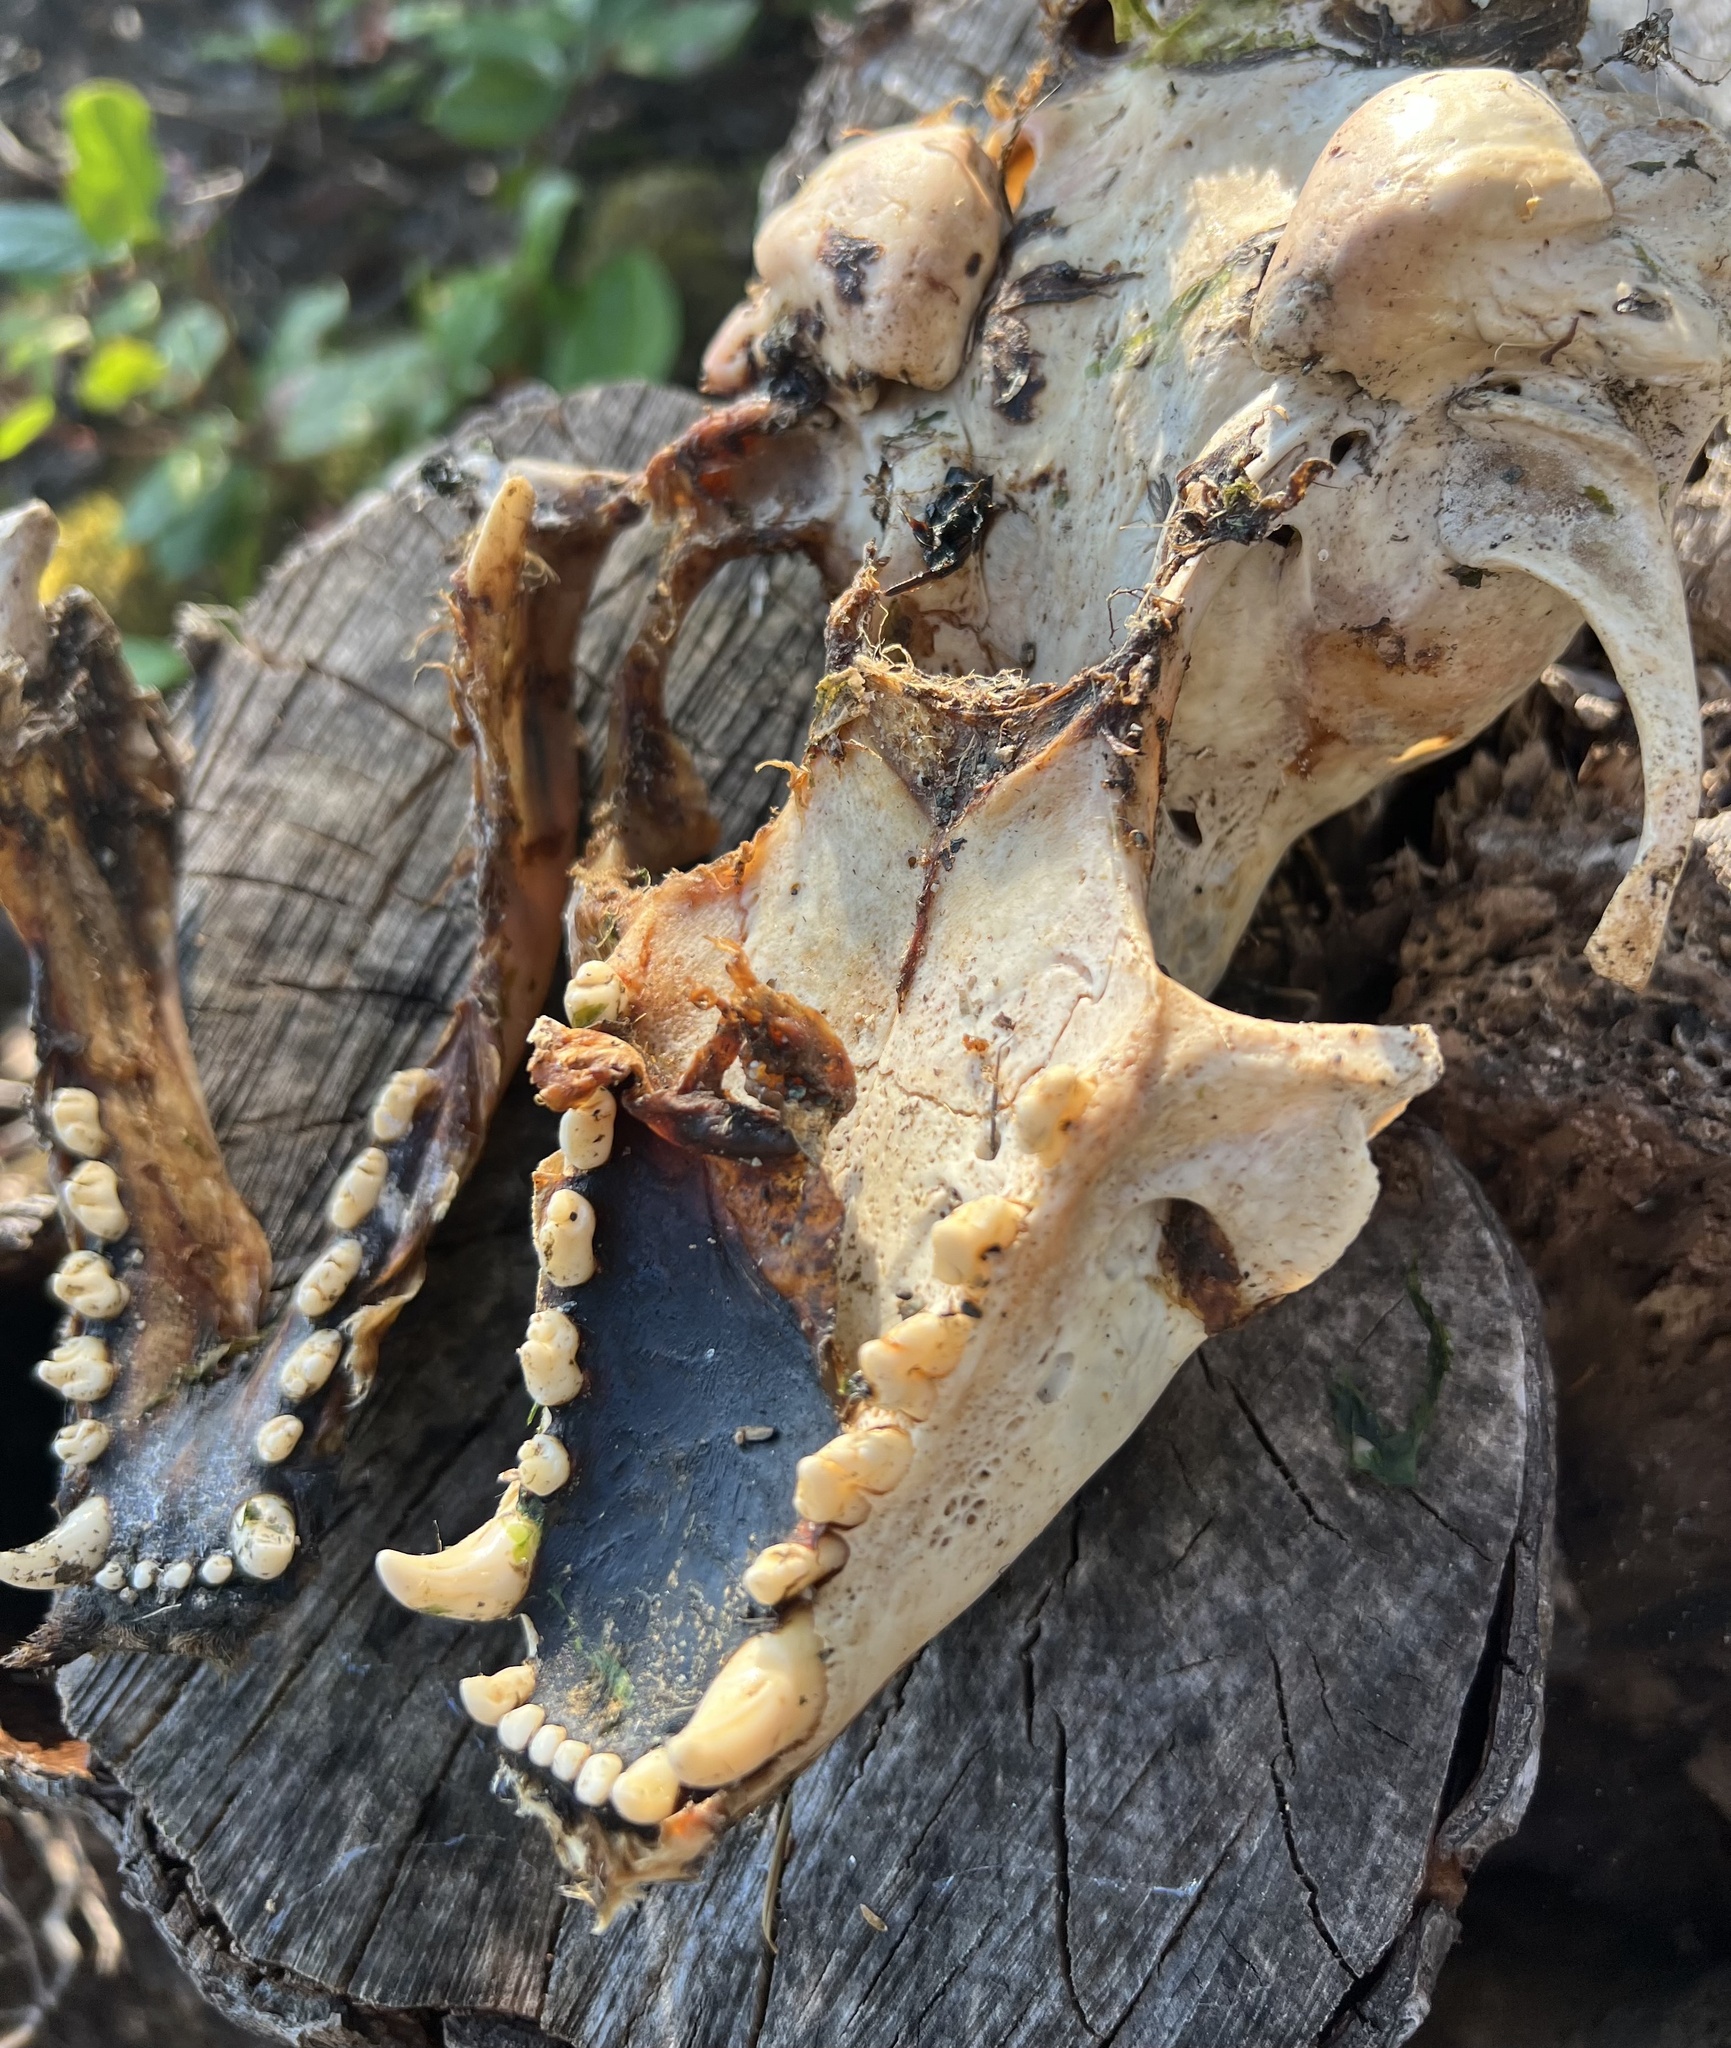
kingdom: Animalia
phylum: Chordata
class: Mammalia
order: Carnivora
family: Phocidae
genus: Phoca
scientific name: Phoca vitulina
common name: Harbor seal
